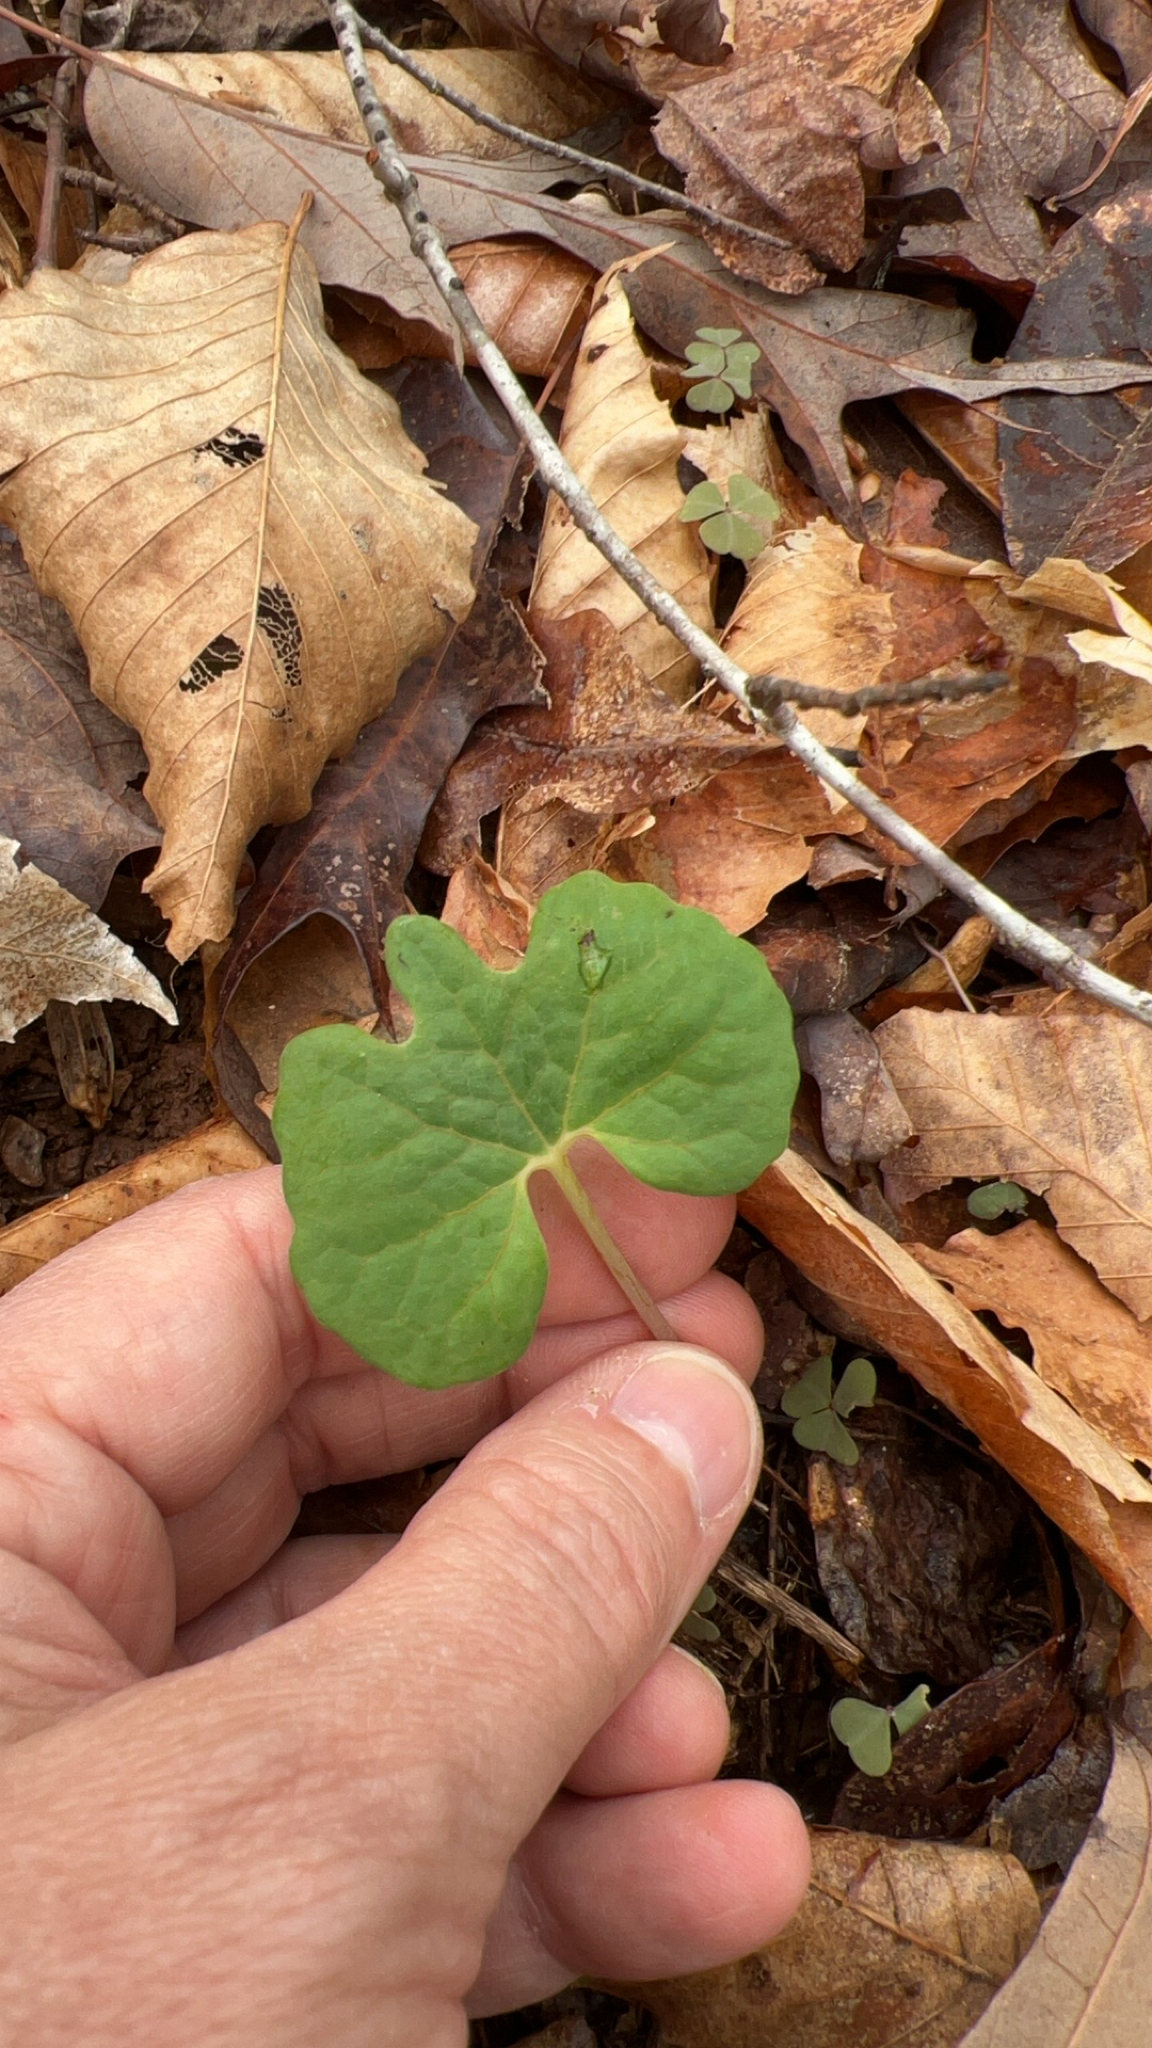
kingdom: Plantae
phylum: Tracheophyta
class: Magnoliopsida
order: Ranunculales
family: Papaveraceae
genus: Sanguinaria
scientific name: Sanguinaria canadensis
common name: Bloodroot
